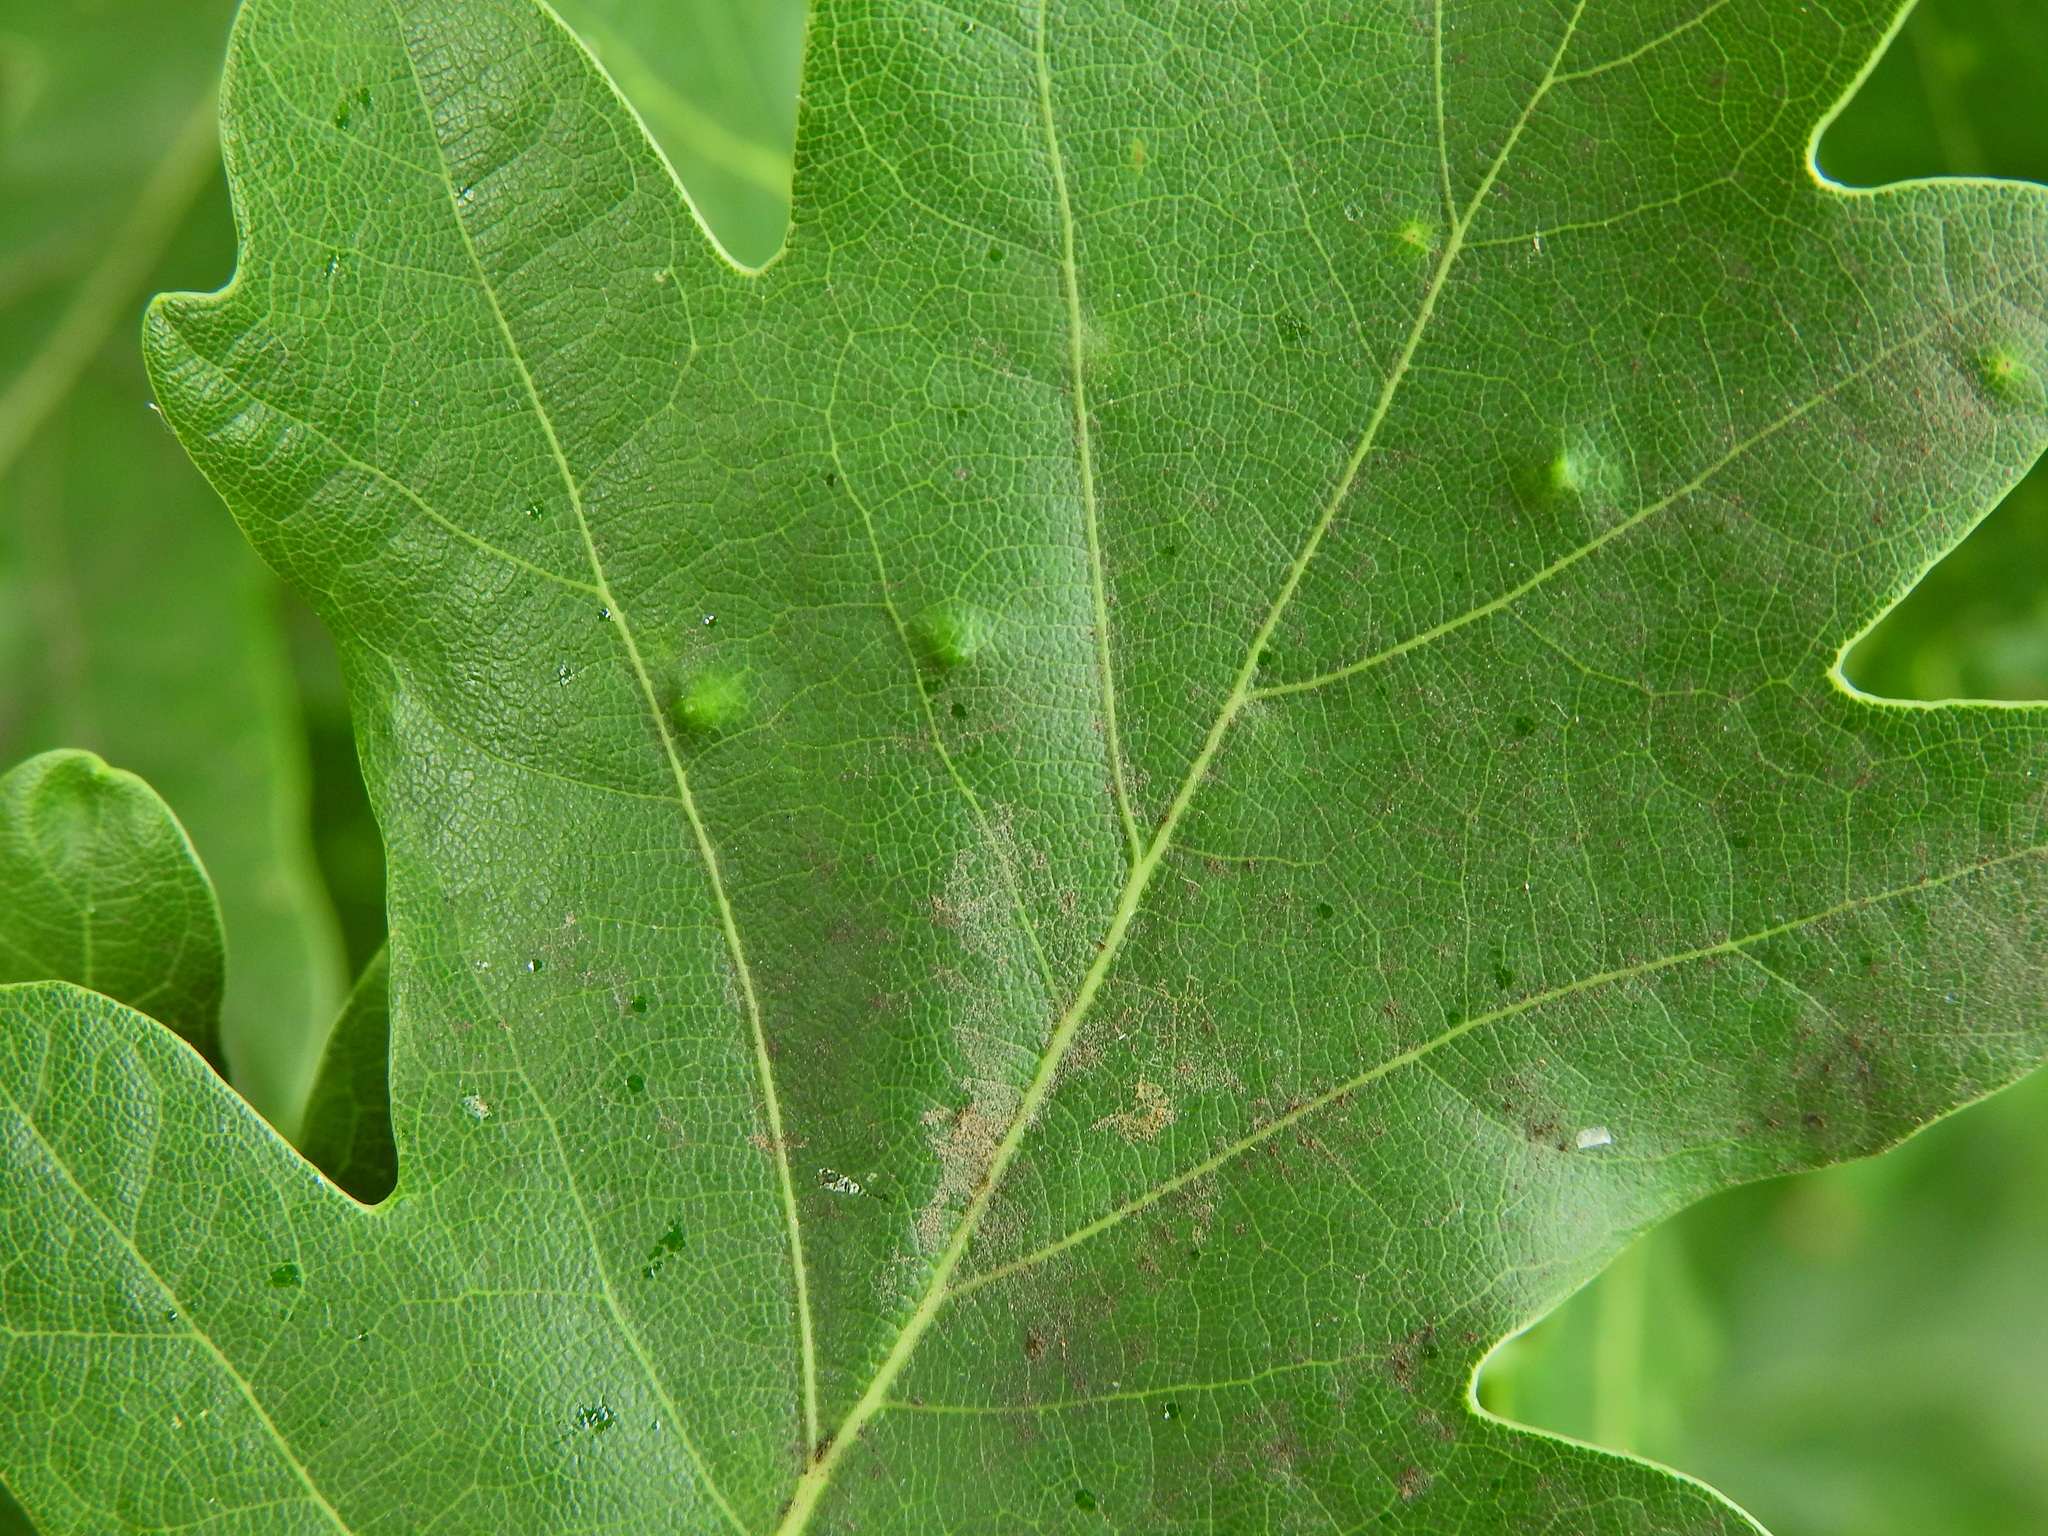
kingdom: Animalia
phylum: Arthropoda
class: Insecta
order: Hemiptera
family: Triozidae
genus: Trioza
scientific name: Trioza remota
